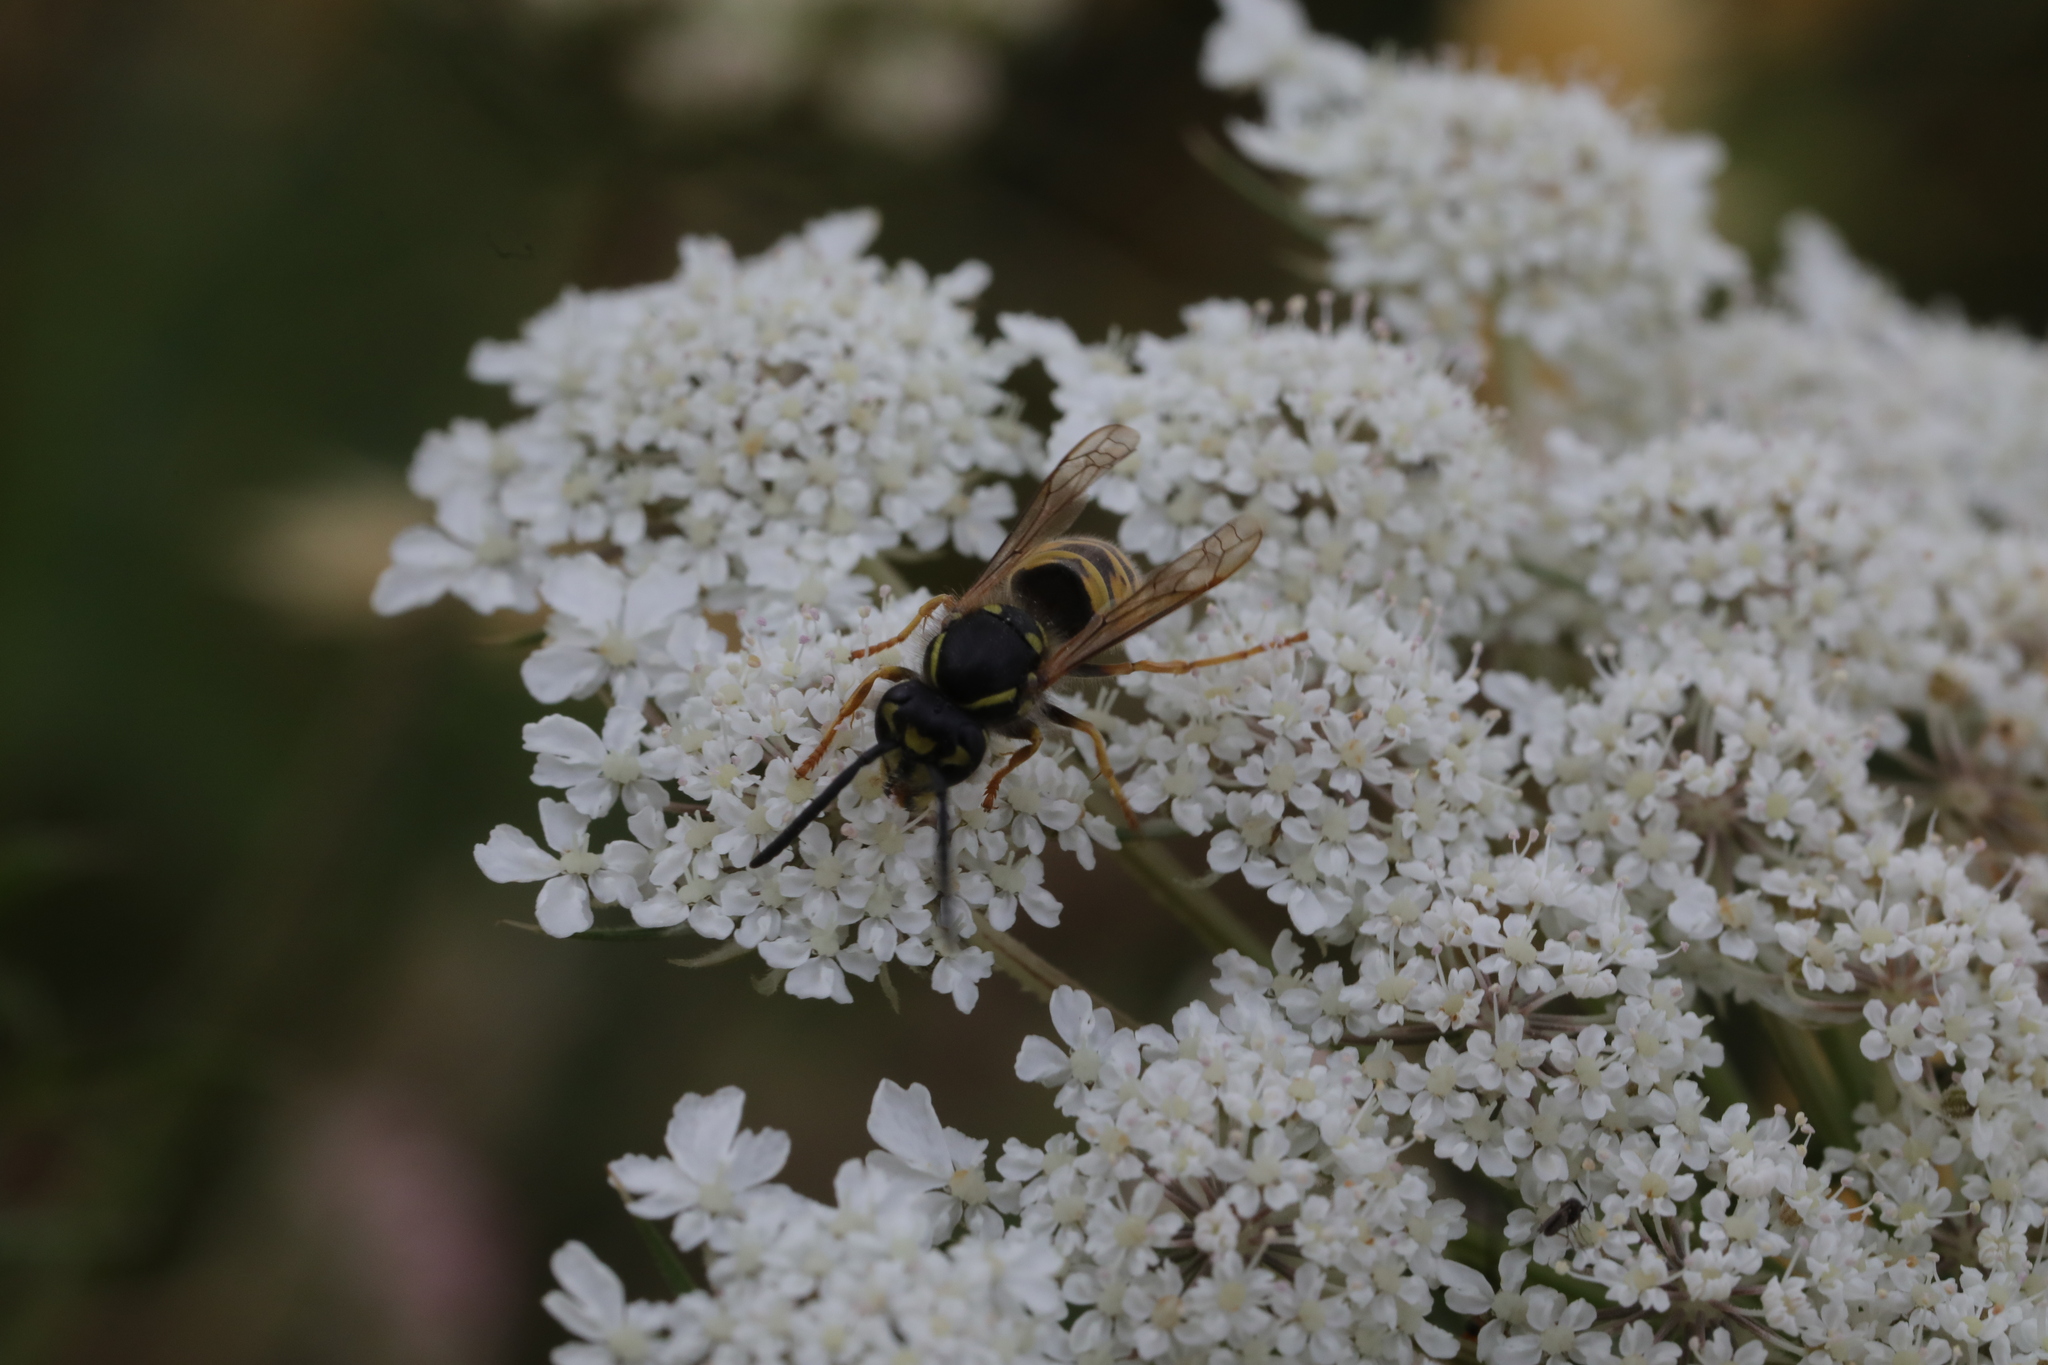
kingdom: Animalia
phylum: Arthropoda
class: Insecta
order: Hymenoptera
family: Vespidae
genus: Vespula
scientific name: Vespula vulgaris
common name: Common wasp
